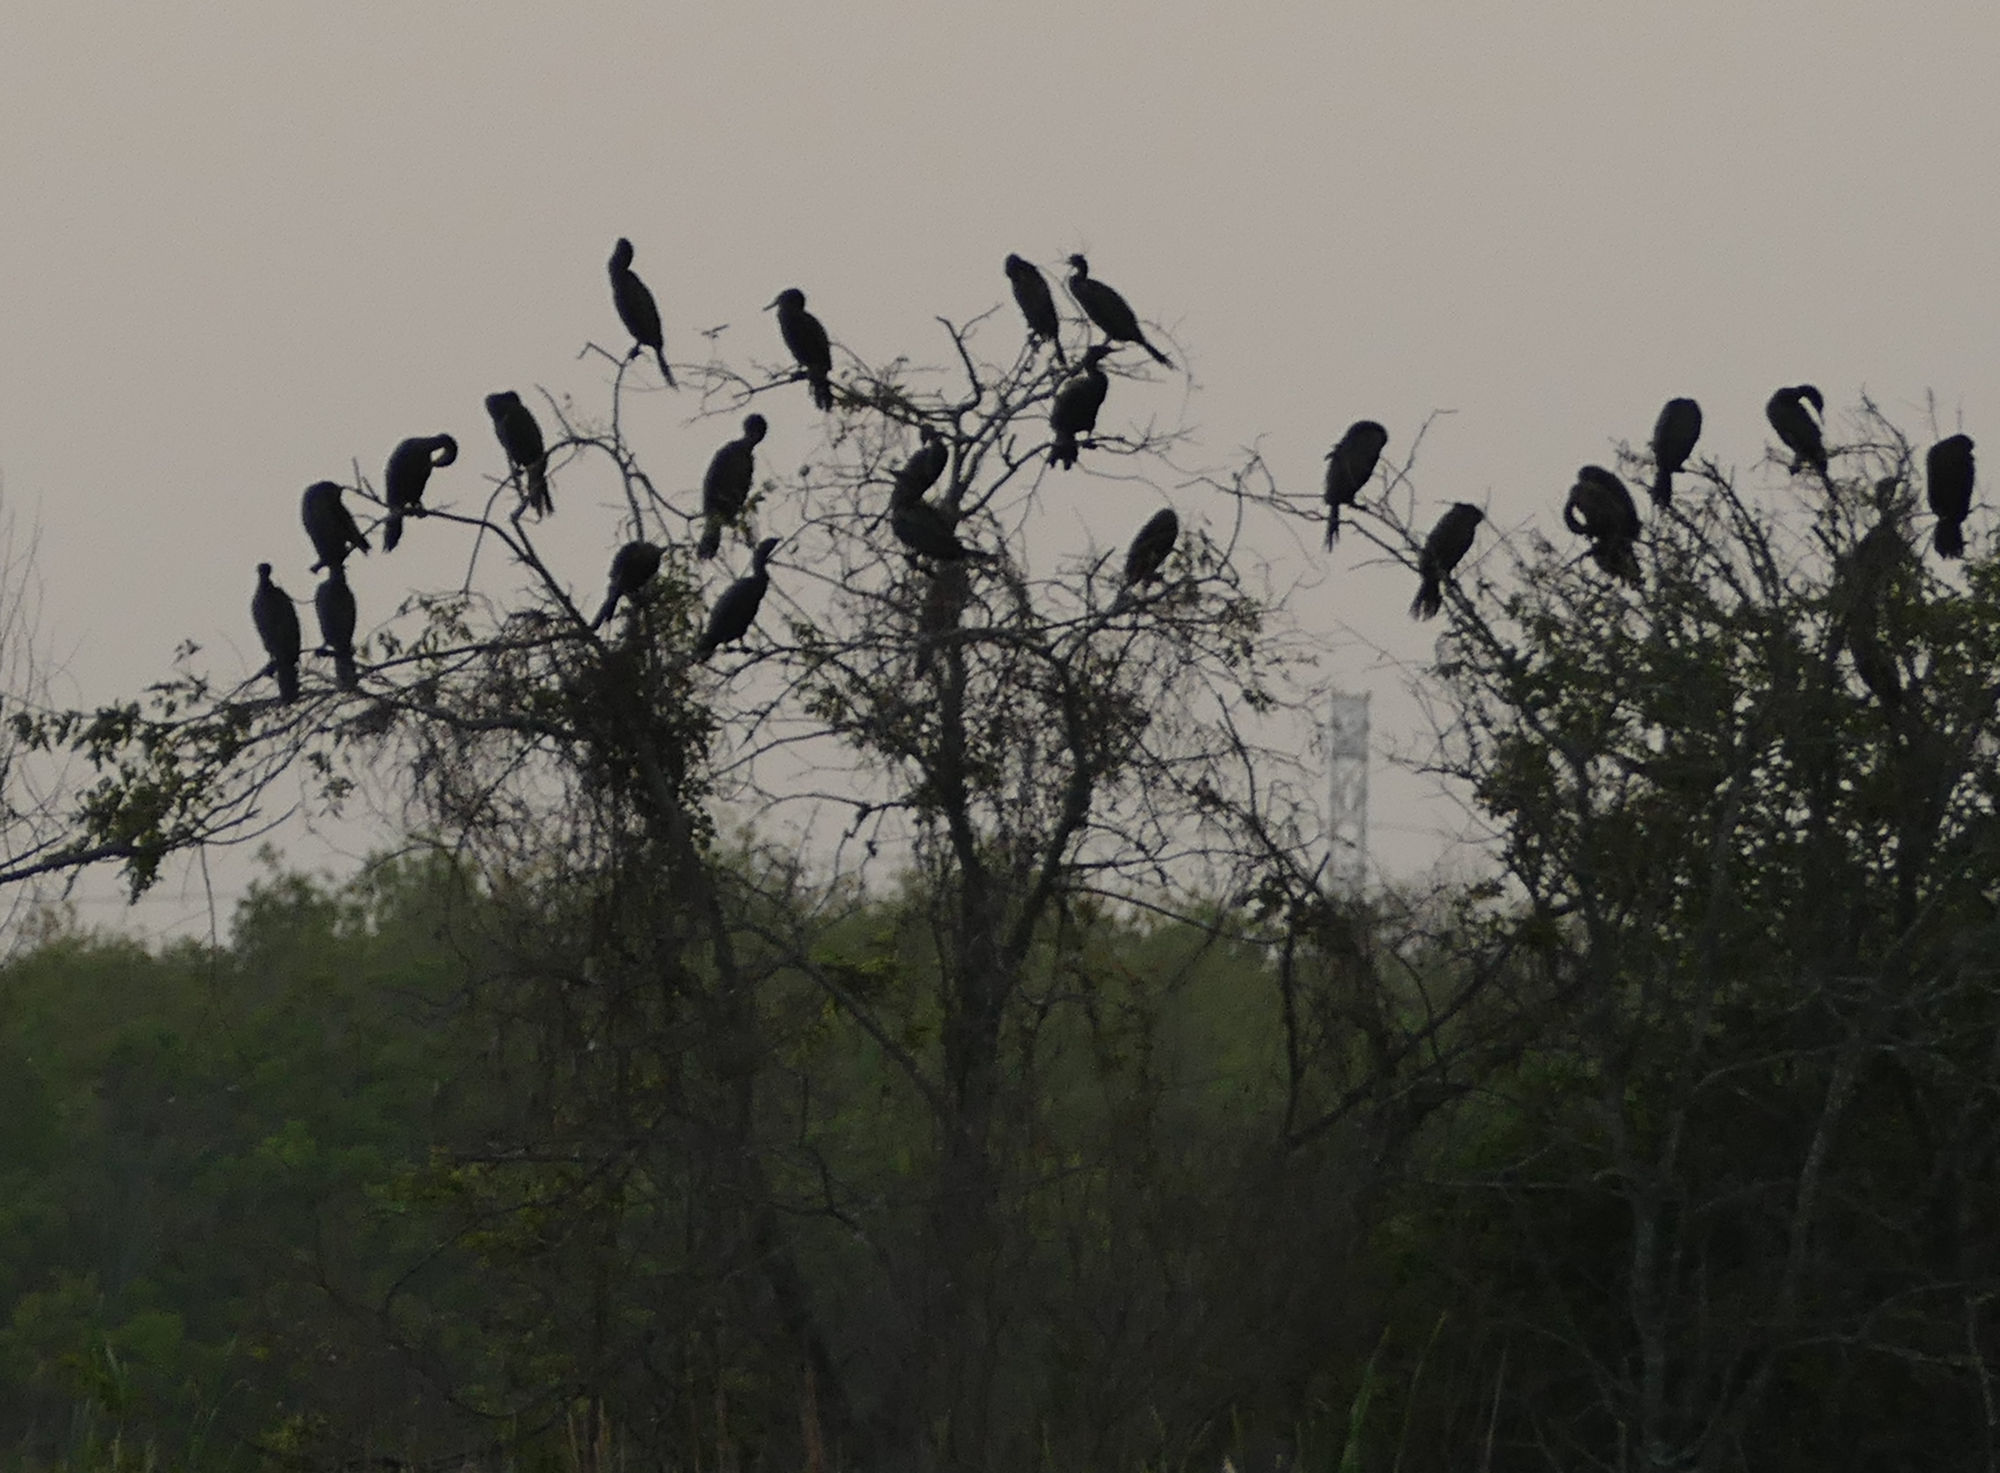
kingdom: Animalia
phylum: Chordata
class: Aves
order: Suliformes
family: Phalacrocoracidae
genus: Phalacrocorax
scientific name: Phalacrocorax brasilianus
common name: Neotropic cormorant
